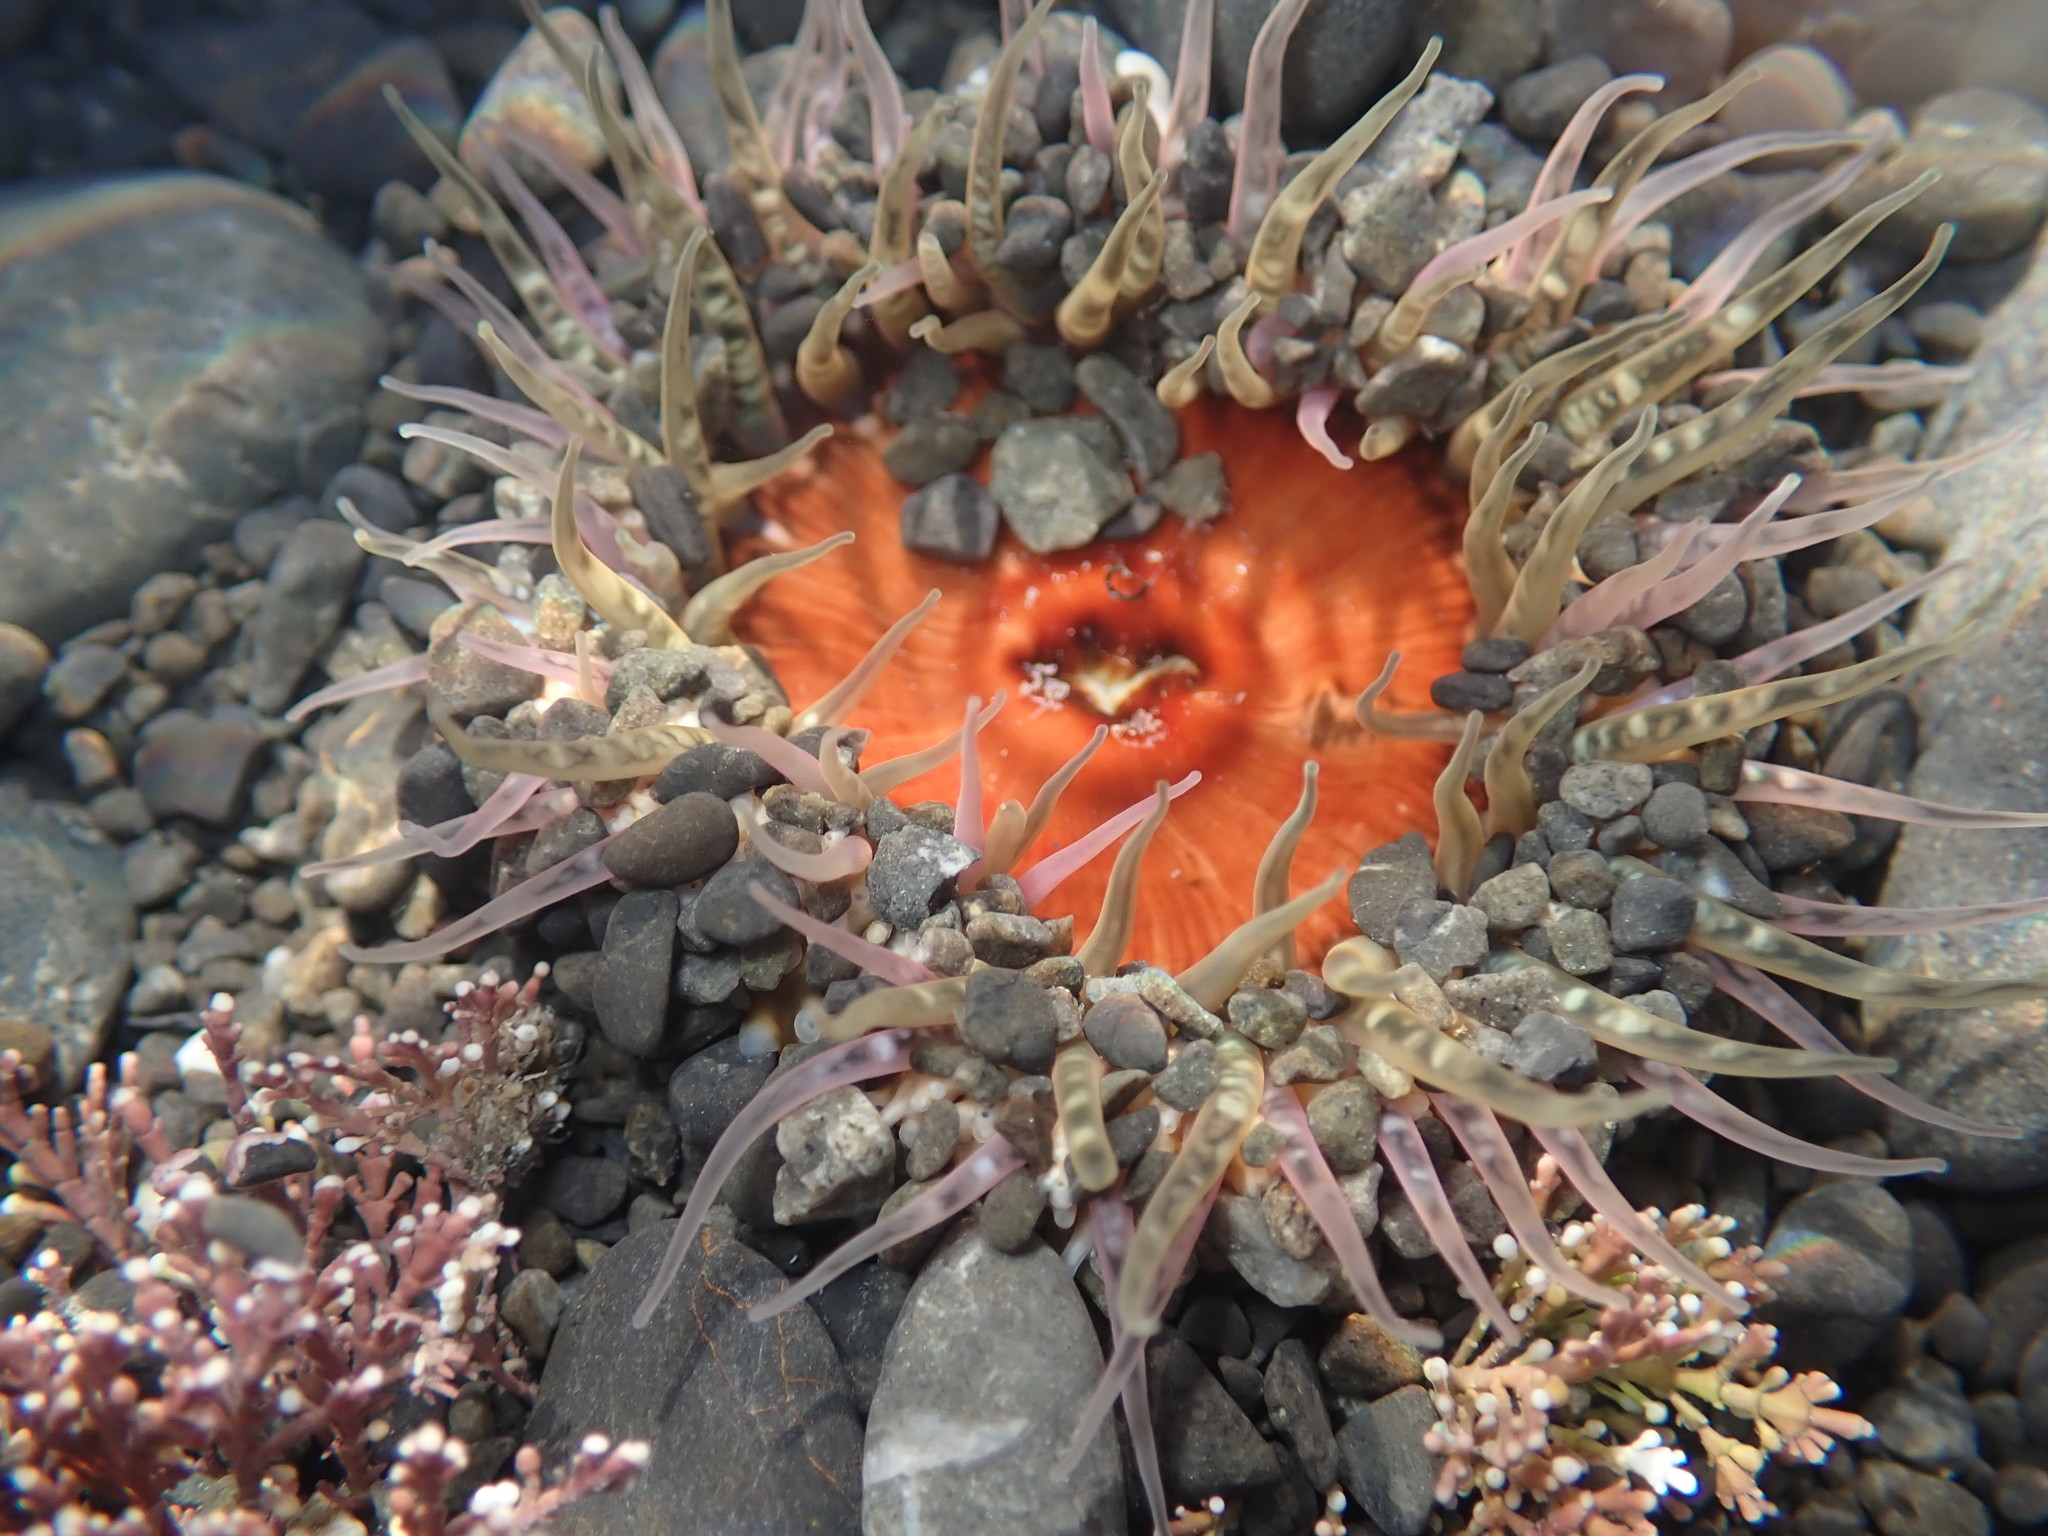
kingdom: Animalia
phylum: Cnidaria
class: Anthozoa
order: Actiniaria
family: Actiniidae
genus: Oulactis
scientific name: Oulactis muscosa
